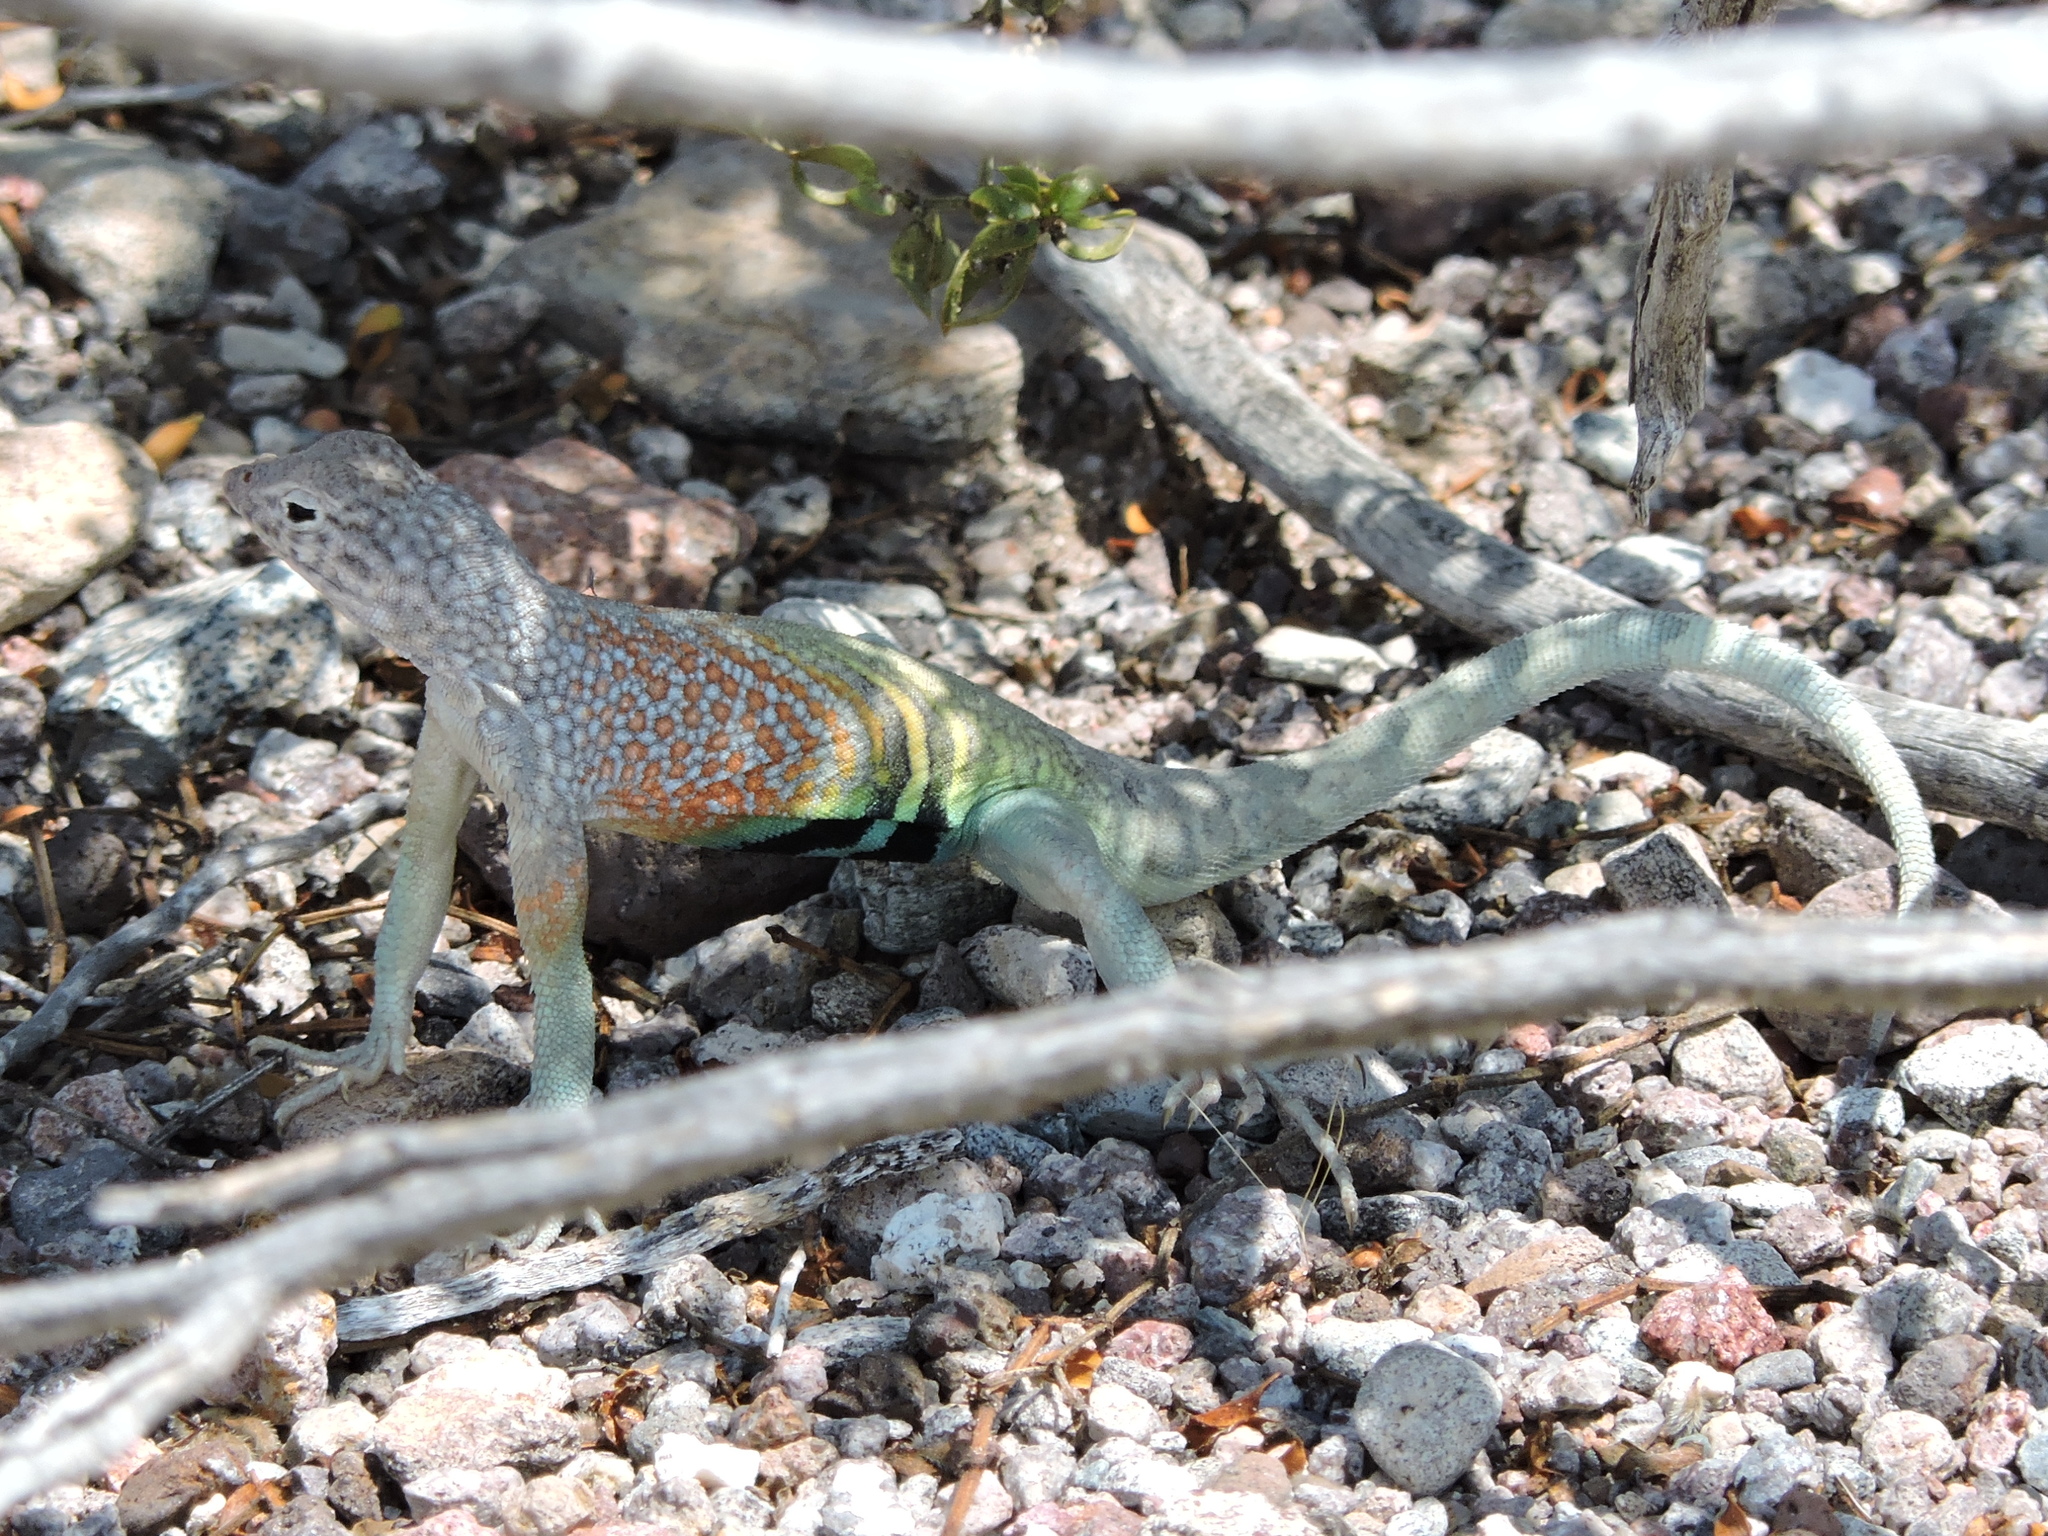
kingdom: Animalia
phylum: Chordata
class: Squamata
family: Phrynosomatidae
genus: Cophosaurus
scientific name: Cophosaurus texanus
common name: Greater earless lizard
